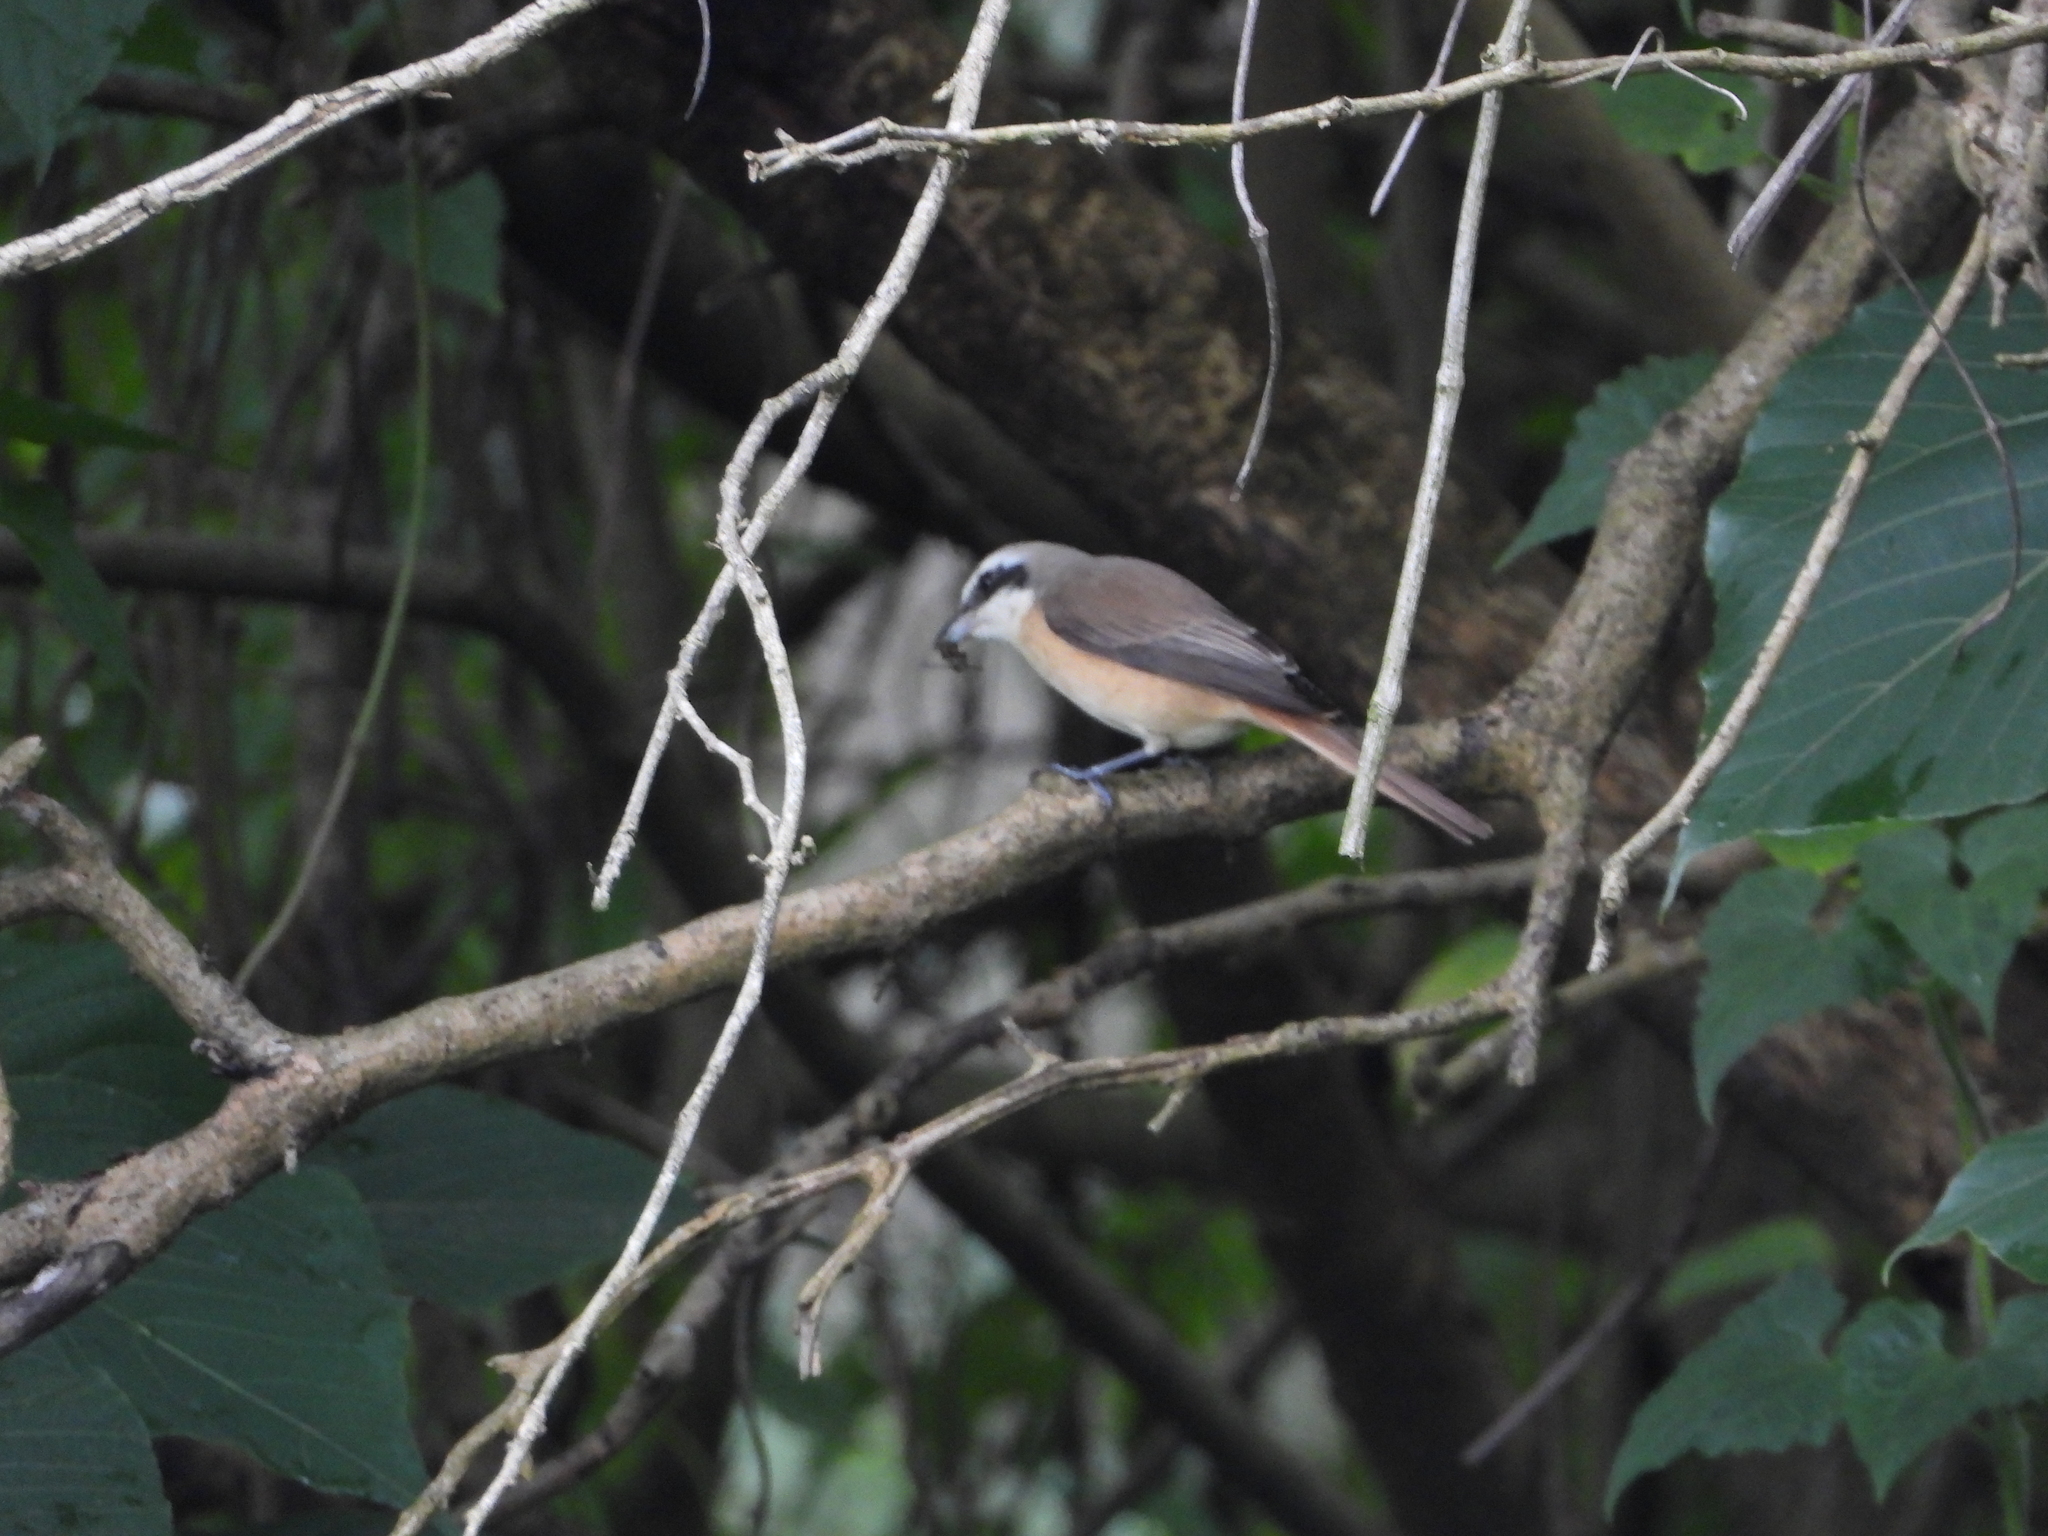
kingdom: Animalia
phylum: Chordata
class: Aves
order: Passeriformes
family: Laniidae
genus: Lanius
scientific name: Lanius cristatus
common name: Brown shrike
